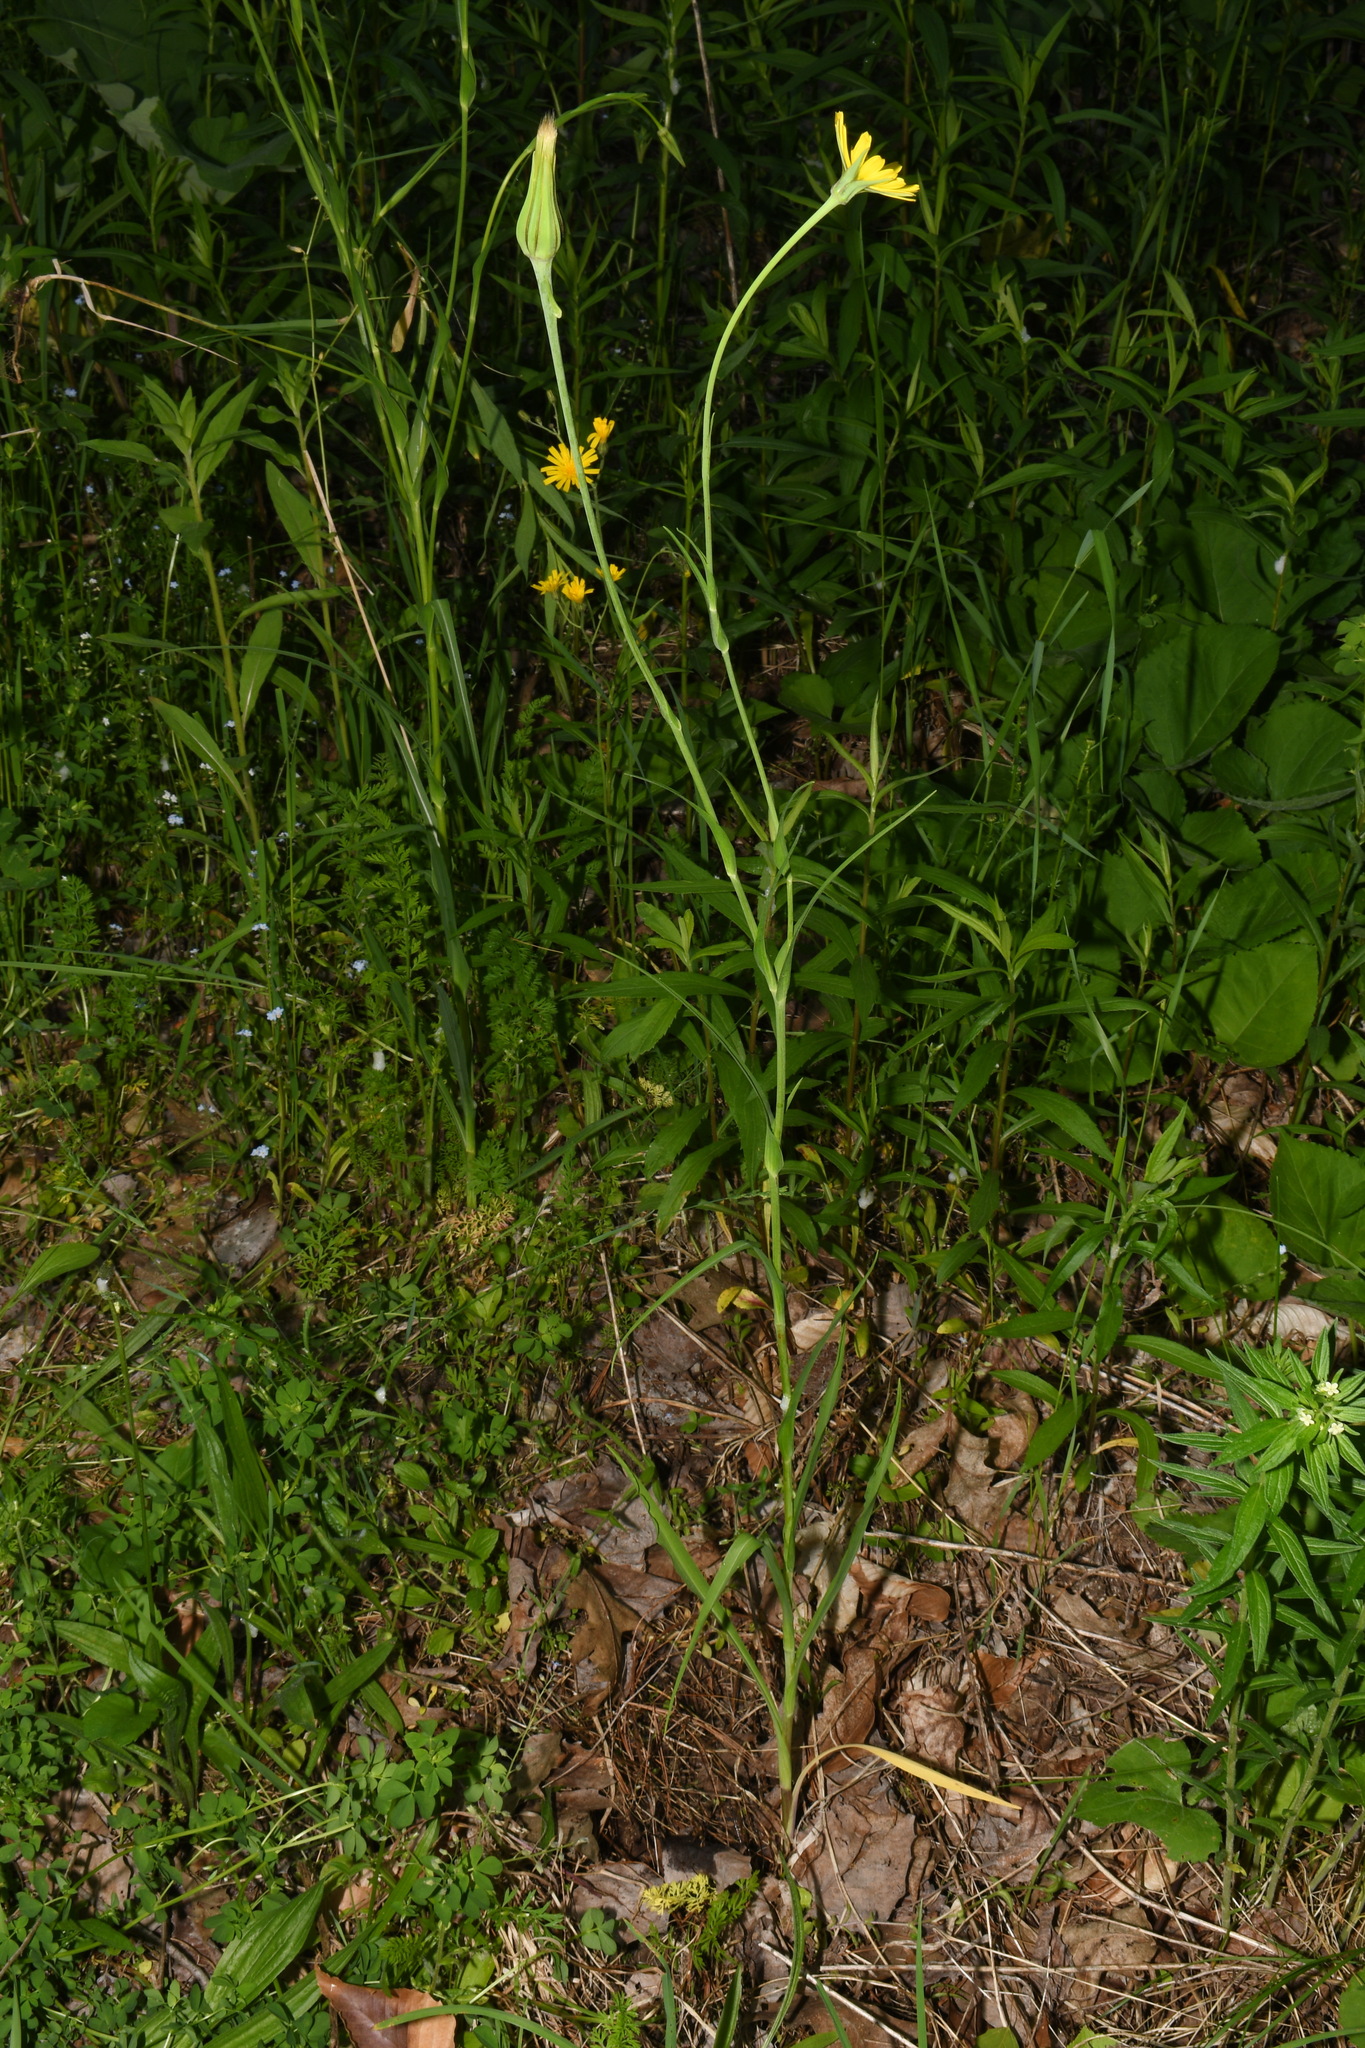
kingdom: Plantae
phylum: Tracheophyta
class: Magnoliopsida
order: Asterales
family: Asteraceae
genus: Tragopogon
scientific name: Tragopogon pratensis
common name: Goat's-beard
